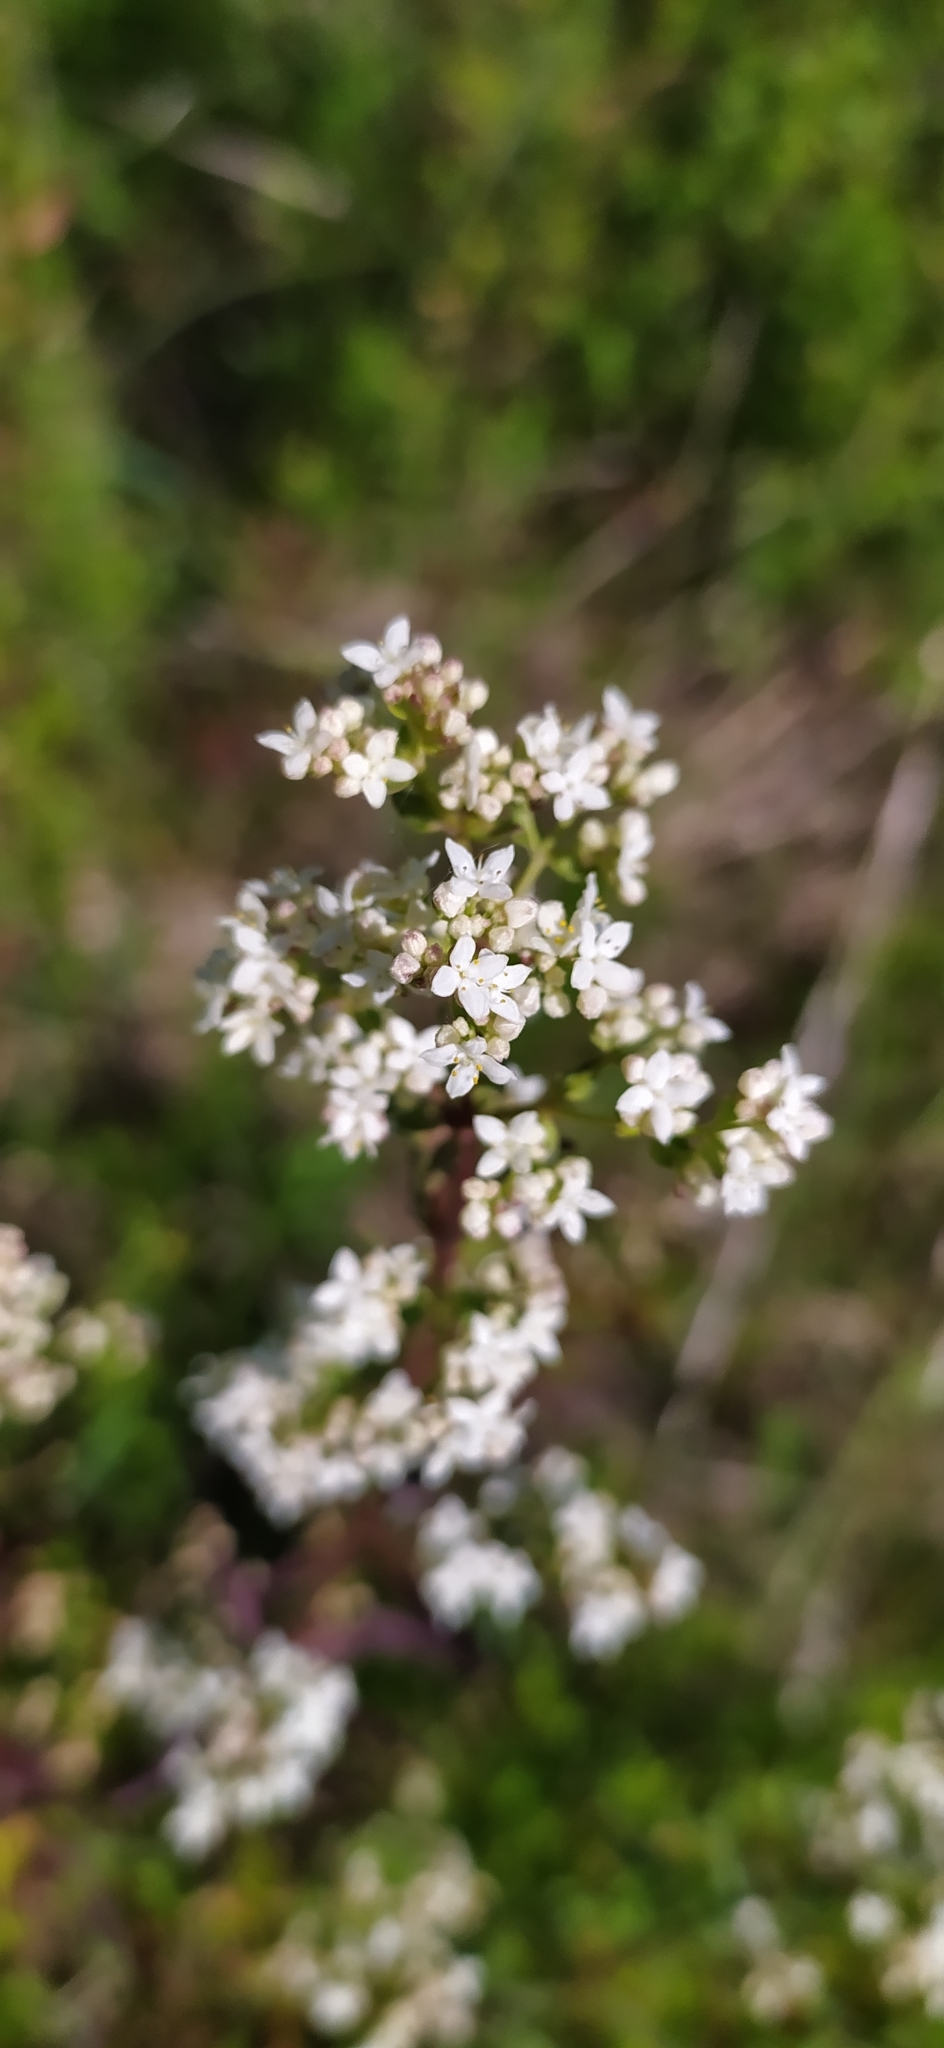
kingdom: Plantae
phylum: Tracheophyta
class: Magnoliopsida
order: Gentianales
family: Rubiaceae
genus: Galium
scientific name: Galium boreale
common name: Northern bedstraw
